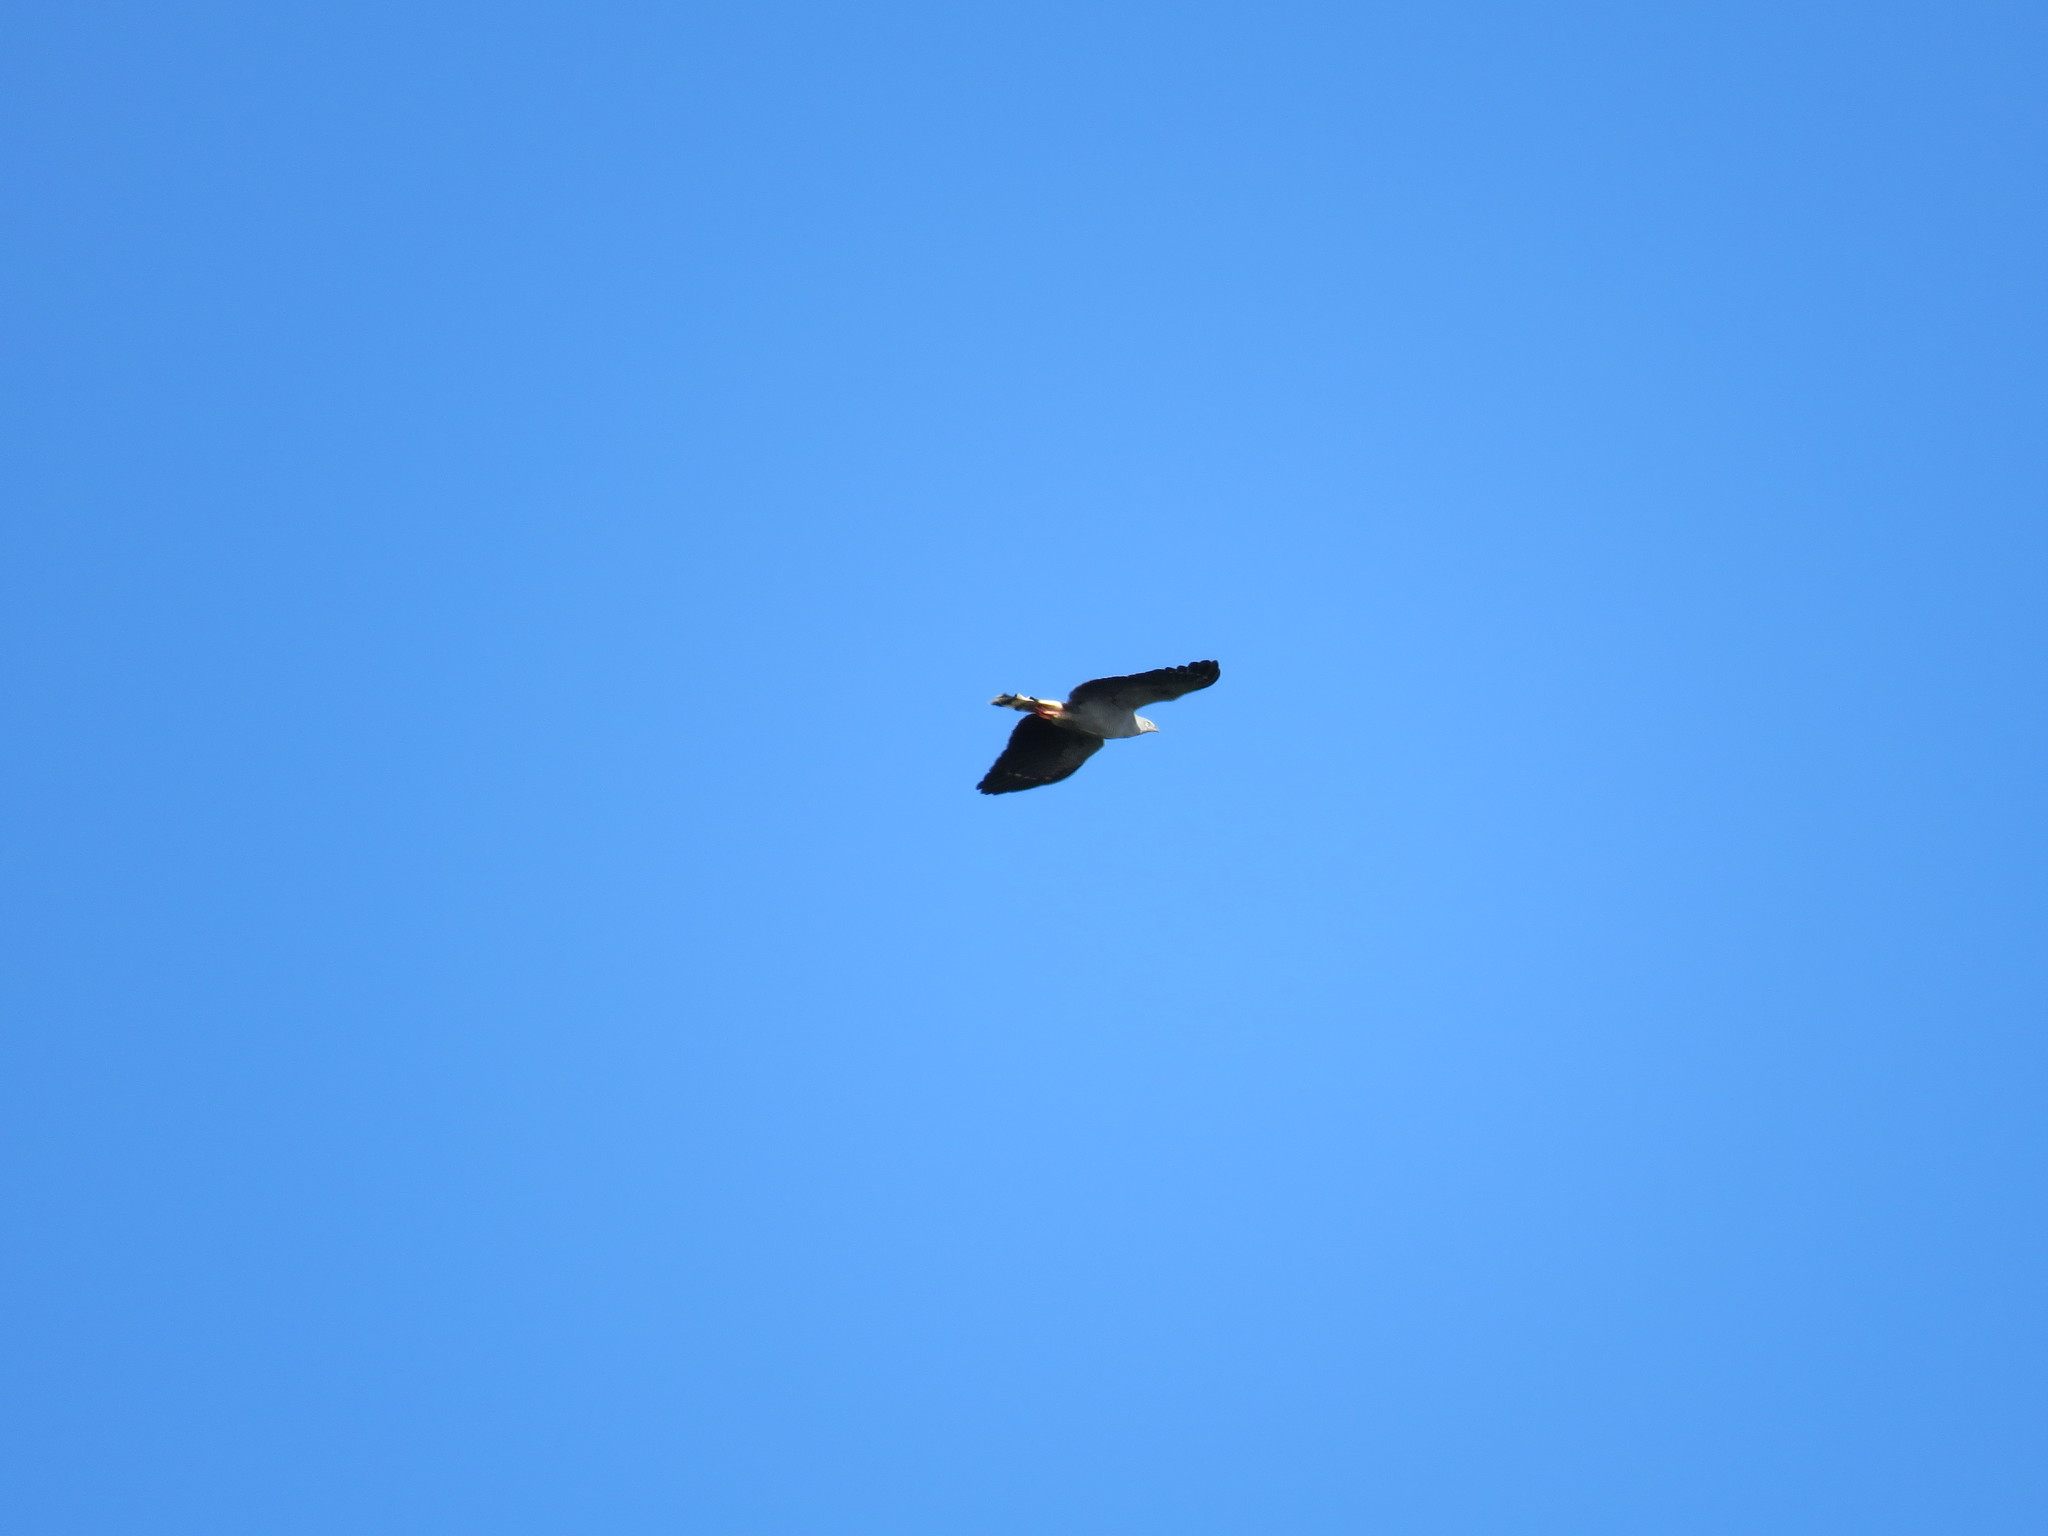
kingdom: Animalia
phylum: Chordata
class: Aves
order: Accipitriformes
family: Accipitridae
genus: Geranospiza
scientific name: Geranospiza caerulescens
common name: Crane hawk
